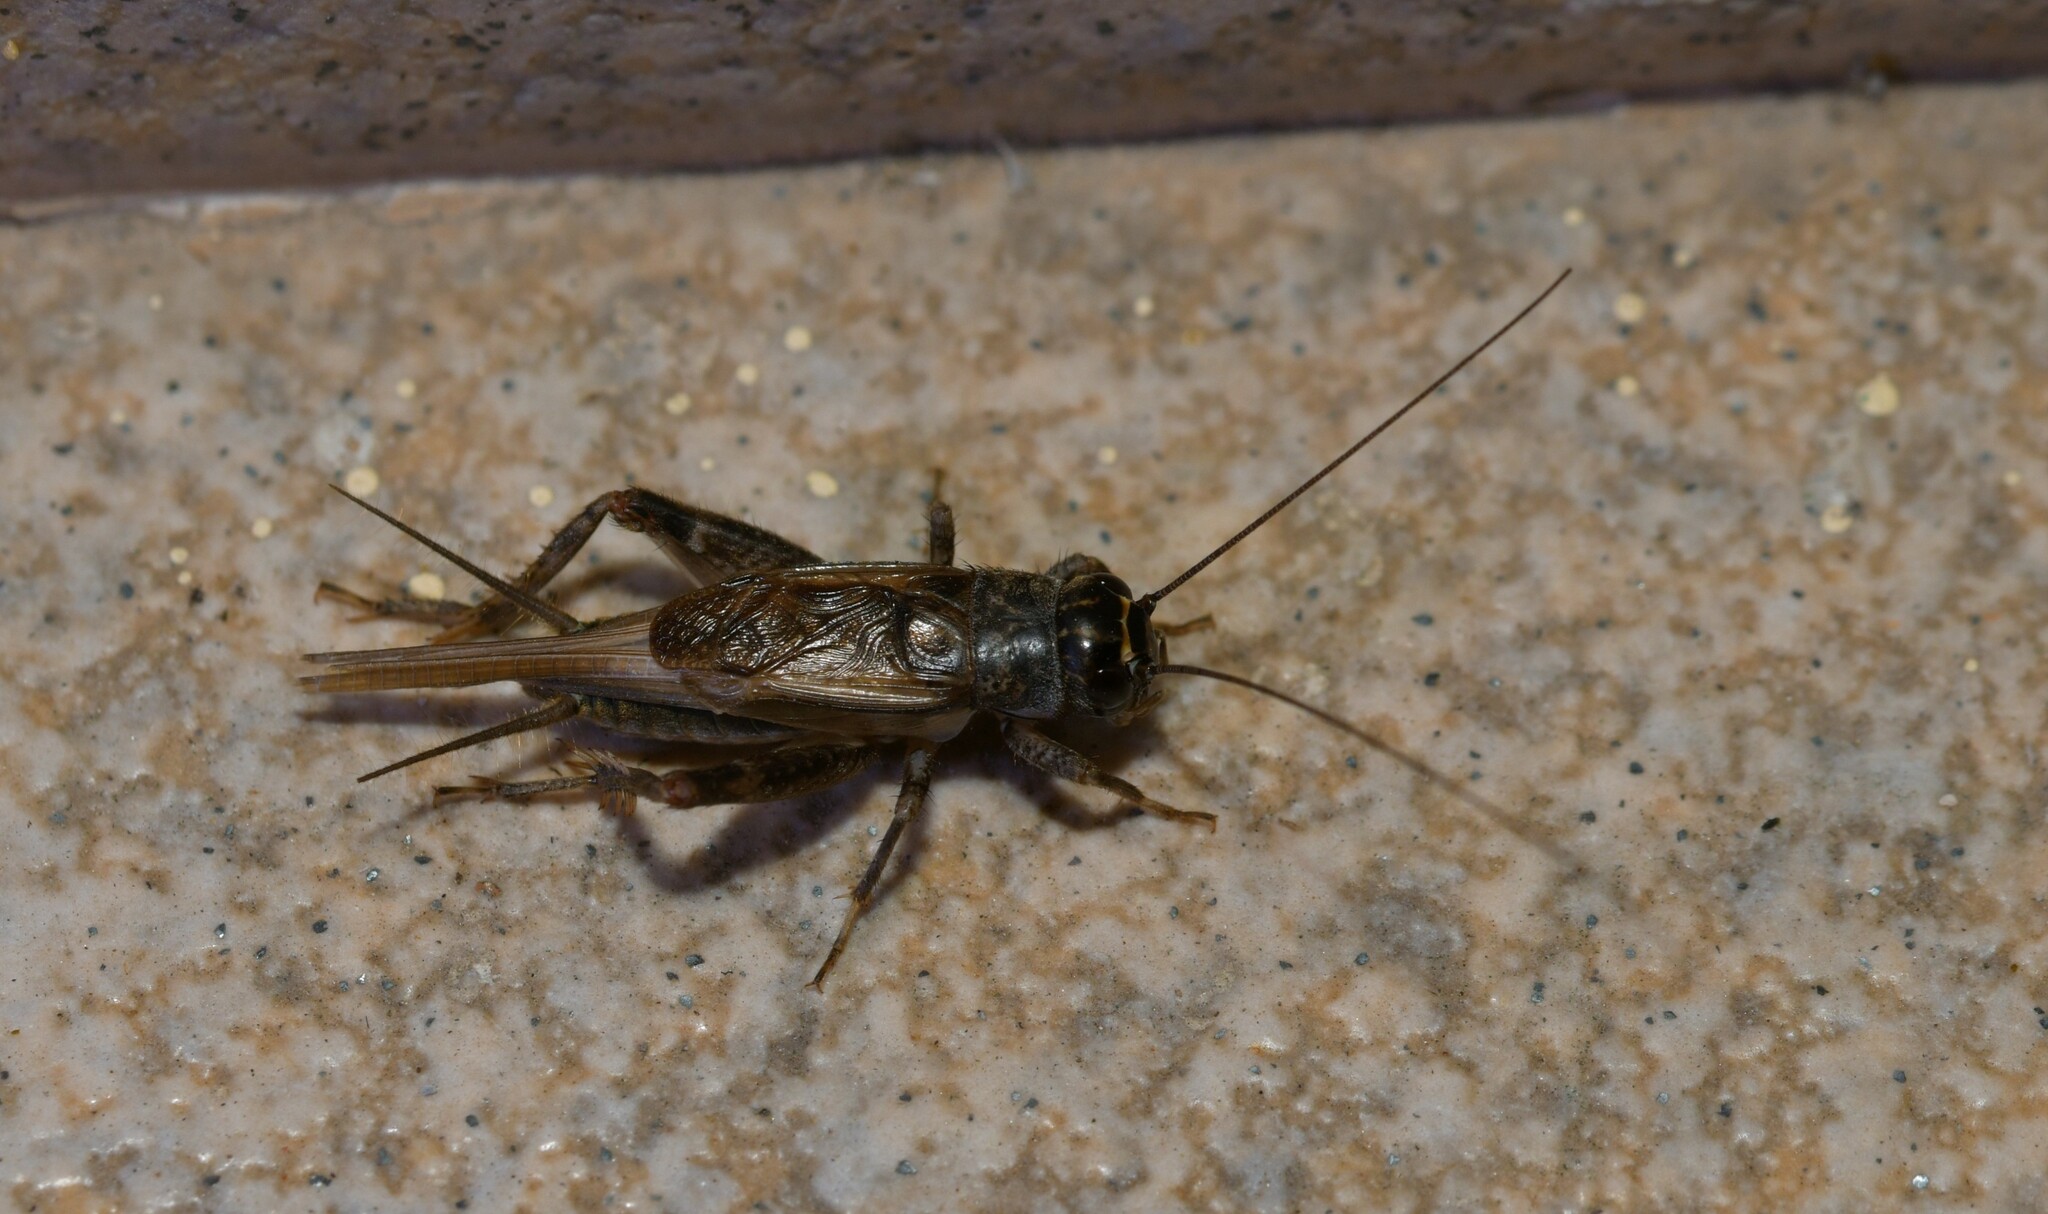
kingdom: Animalia
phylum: Arthropoda
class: Insecta
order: Orthoptera
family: Gryllidae
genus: Eumodicogryllus
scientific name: Eumodicogryllus bordigalensis
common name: Bordeaux cricket
